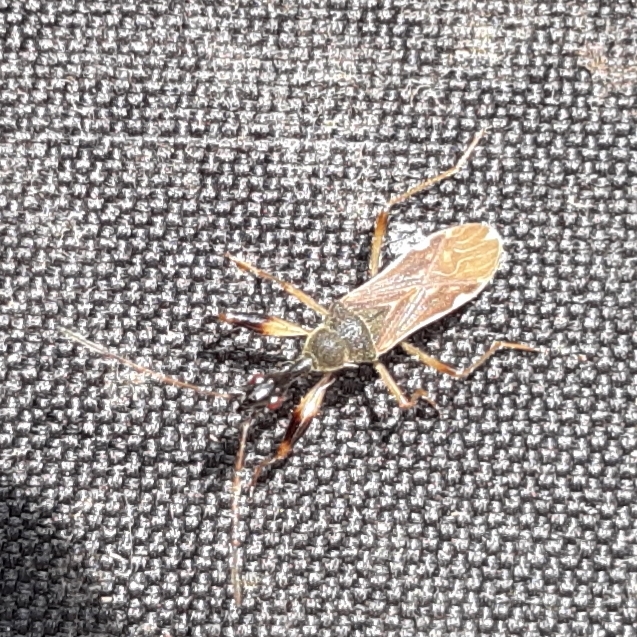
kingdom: Animalia
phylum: Arthropoda
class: Insecta
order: Hemiptera
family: Rhyparochromidae
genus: Myodocha
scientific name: Myodocha serripes
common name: Long-necked seed bug
